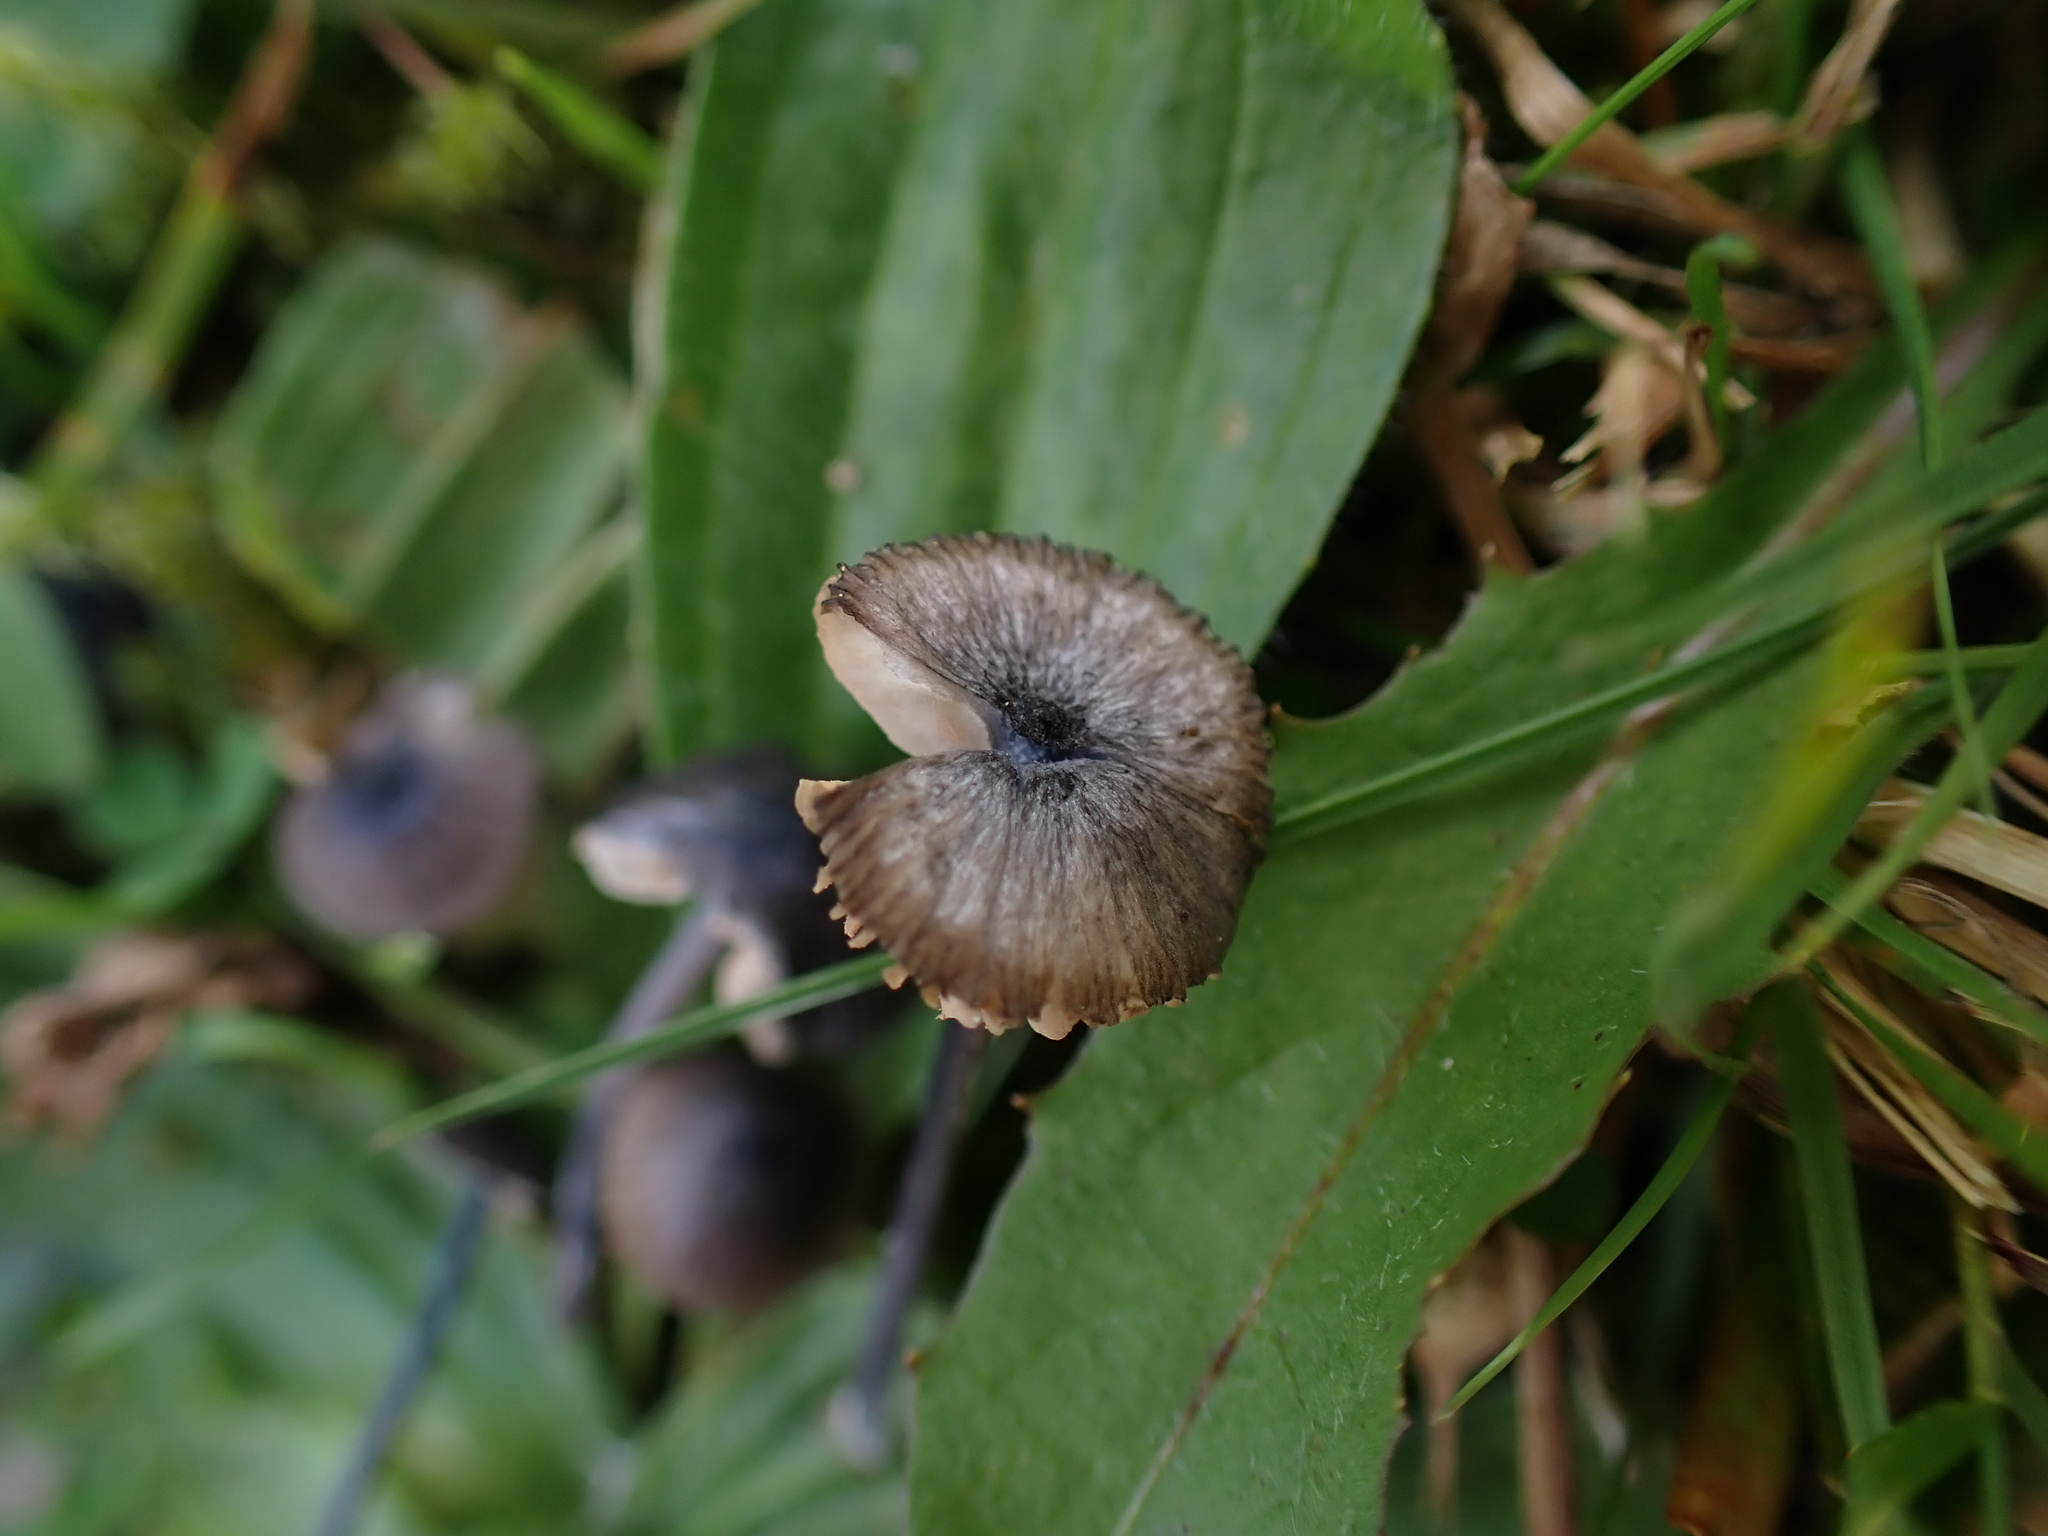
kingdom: Fungi
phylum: Basidiomycota
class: Agaricomycetes
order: Agaricales
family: Entolomataceae
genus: Entoloma
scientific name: Entoloma cyanulum
